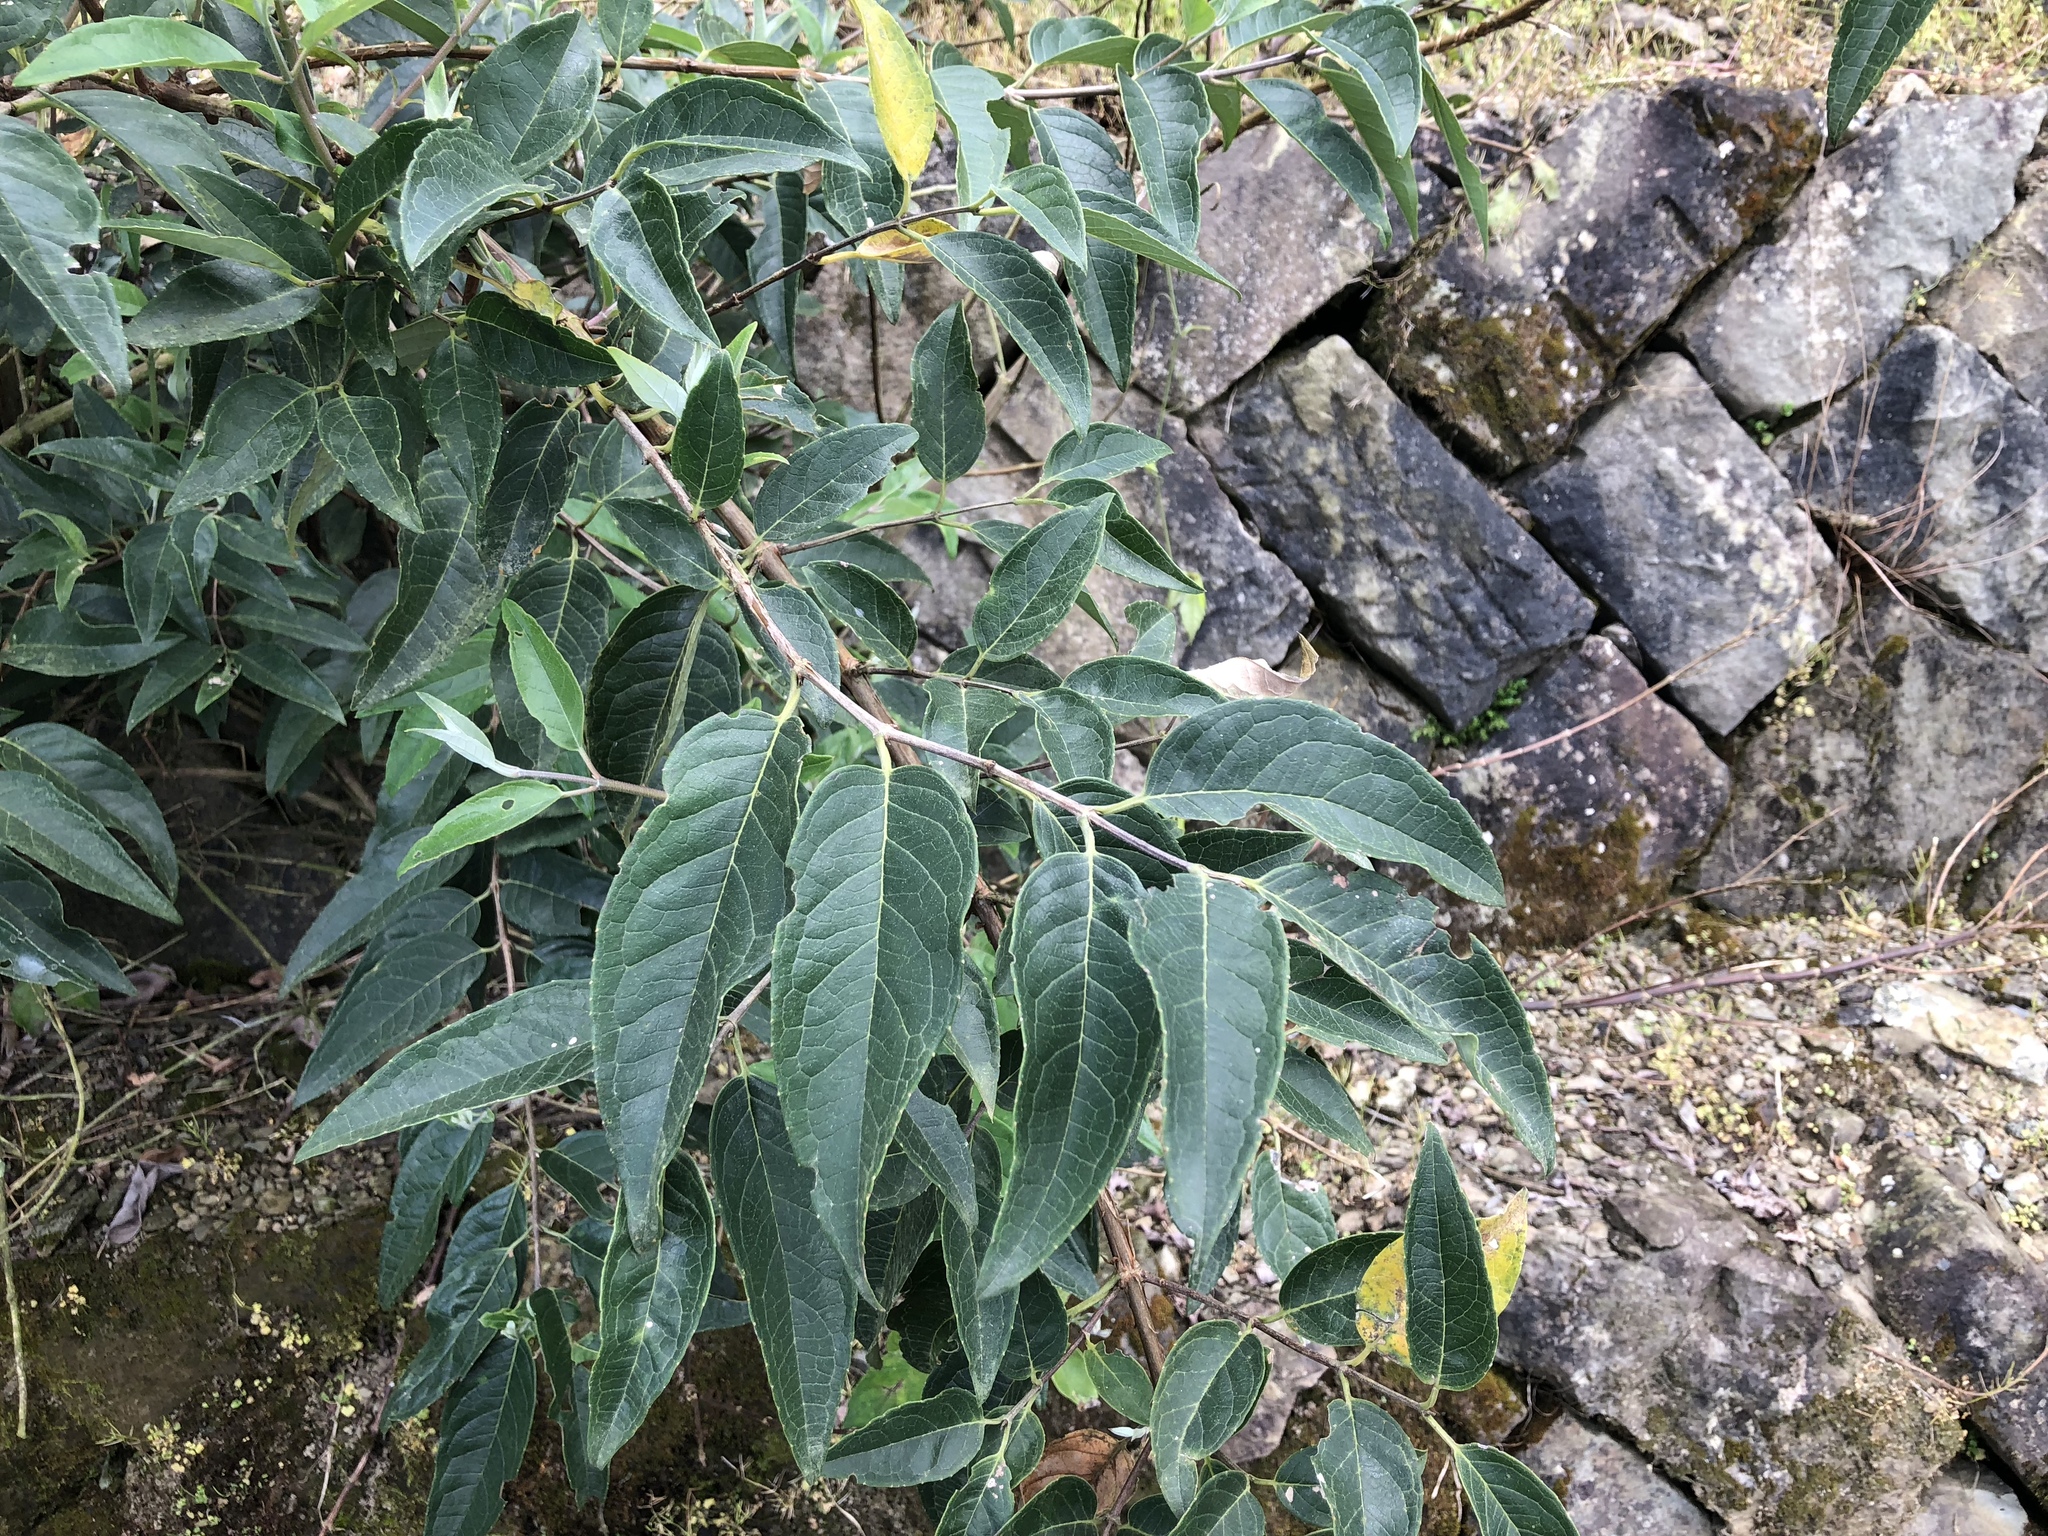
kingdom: Plantae
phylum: Tracheophyta
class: Magnoliopsida
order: Cornales
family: Hydrangeaceae
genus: Deutzia
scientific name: Deutzia pulchra
